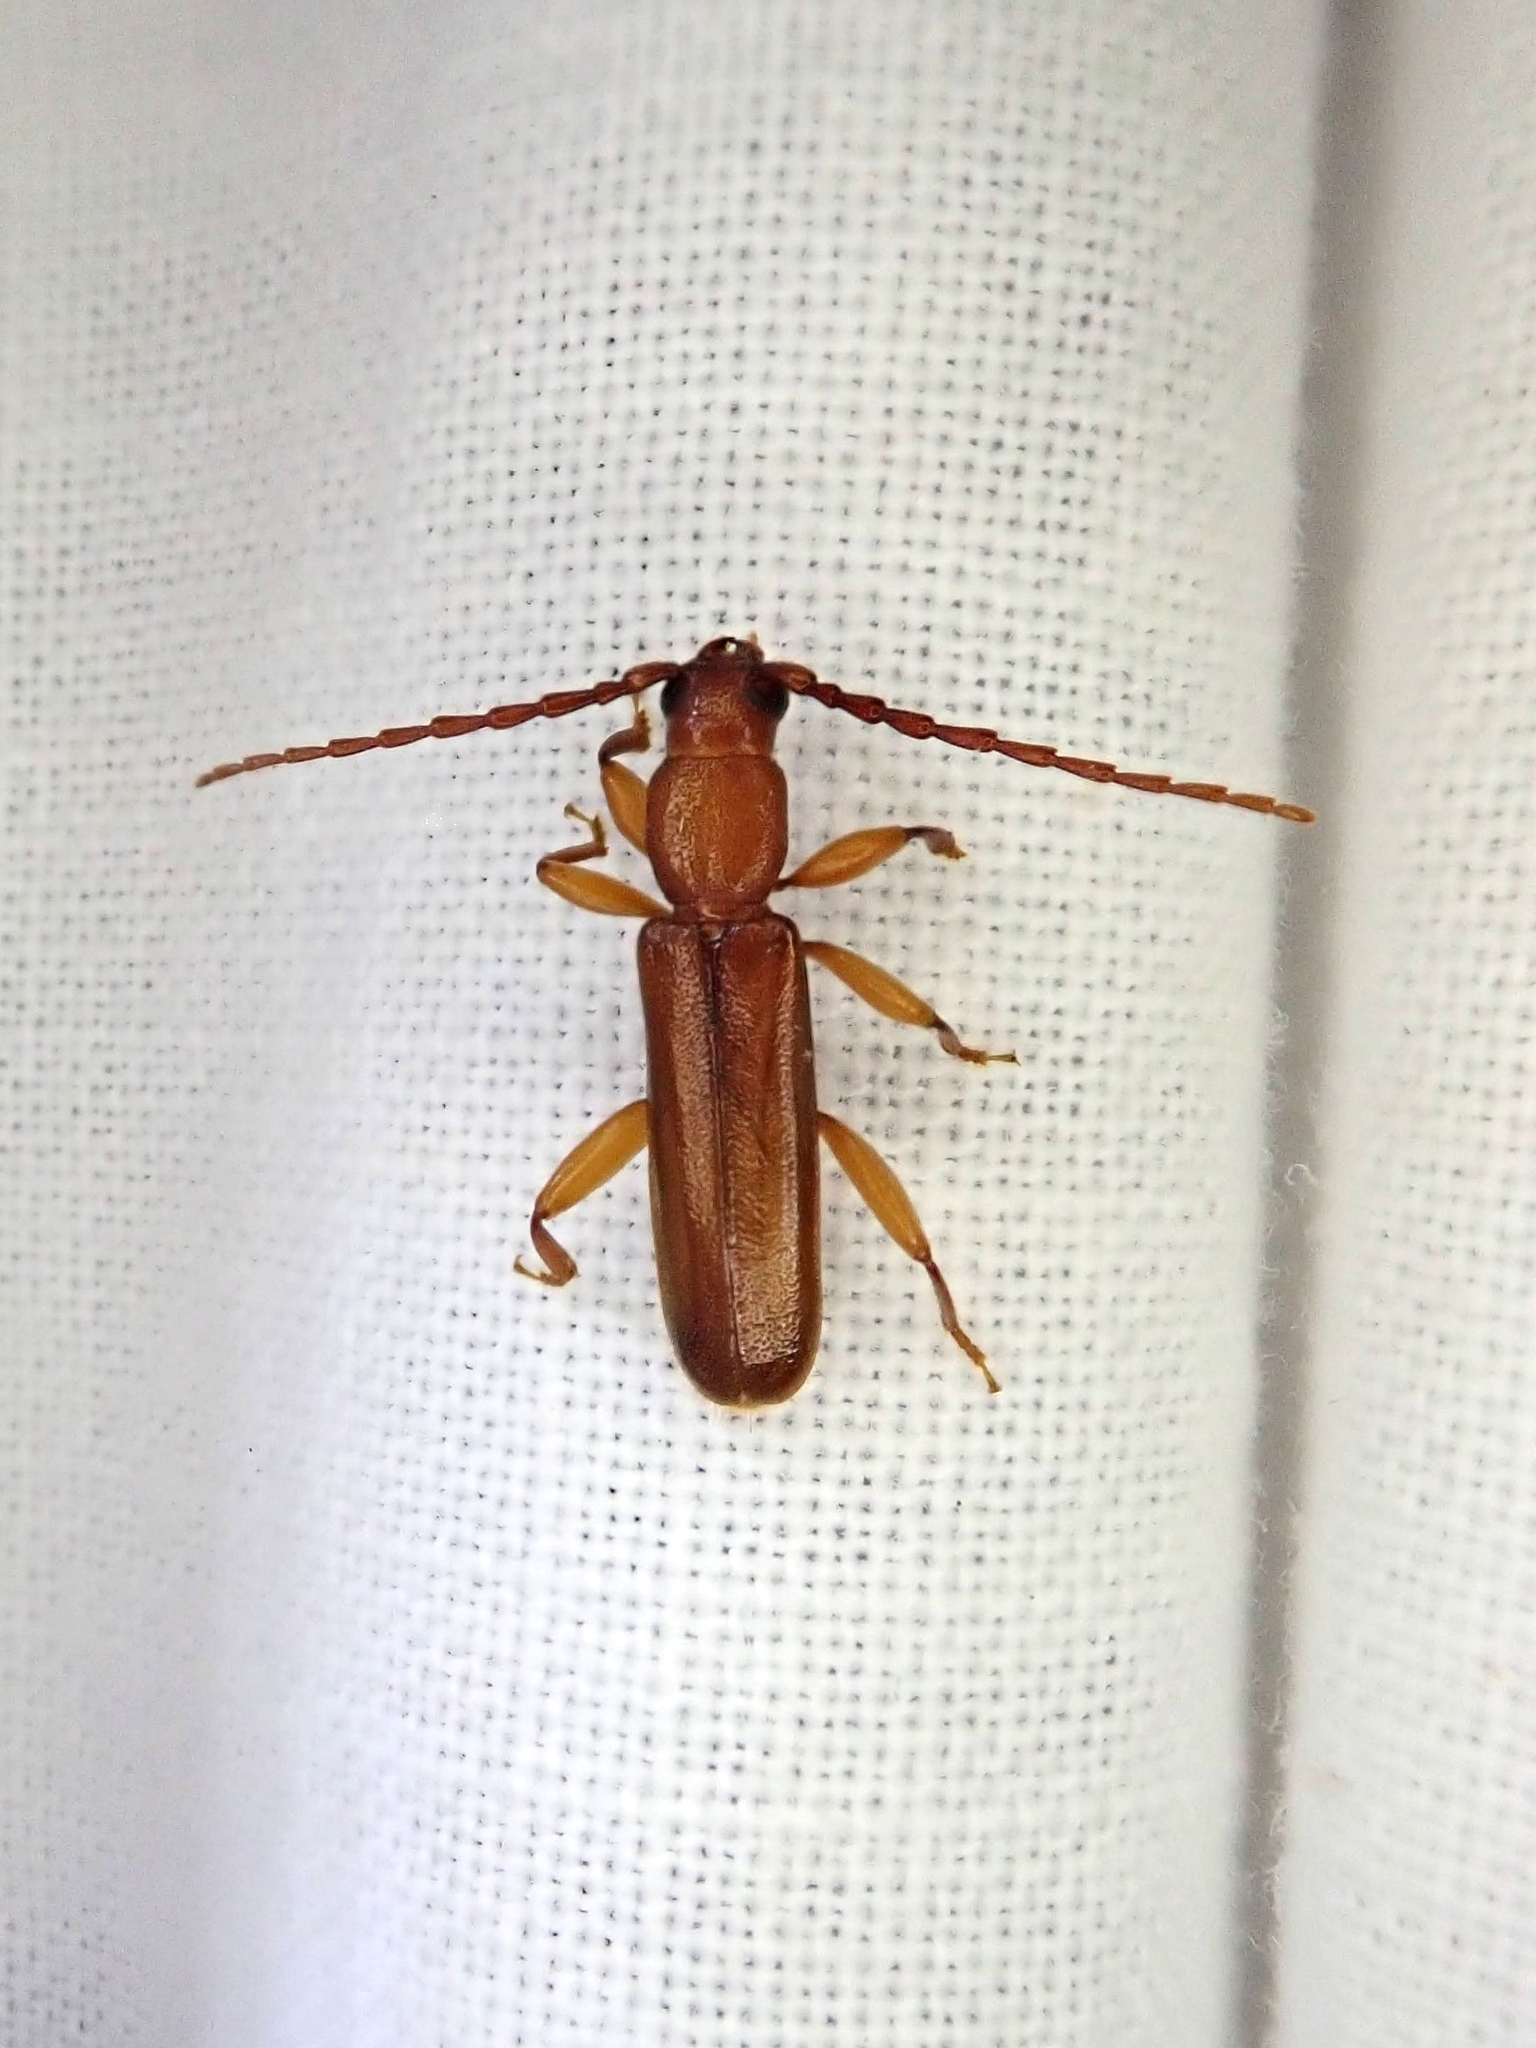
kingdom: Animalia
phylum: Arthropoda
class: Insecta
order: Coleoptera
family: Cerambycidae
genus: Smodicum
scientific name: Smodicum cucujiforme
